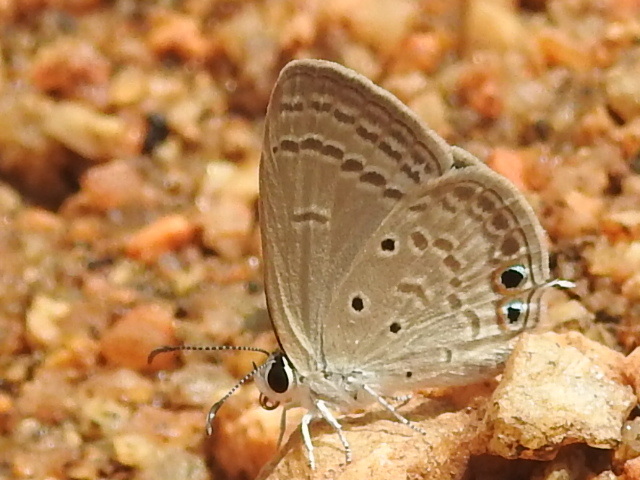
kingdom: Animalia
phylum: Arthropoda
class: Insecta
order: Lepidoptera
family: Lycaenidae
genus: Euchrysops
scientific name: Euchrysops cnejus
